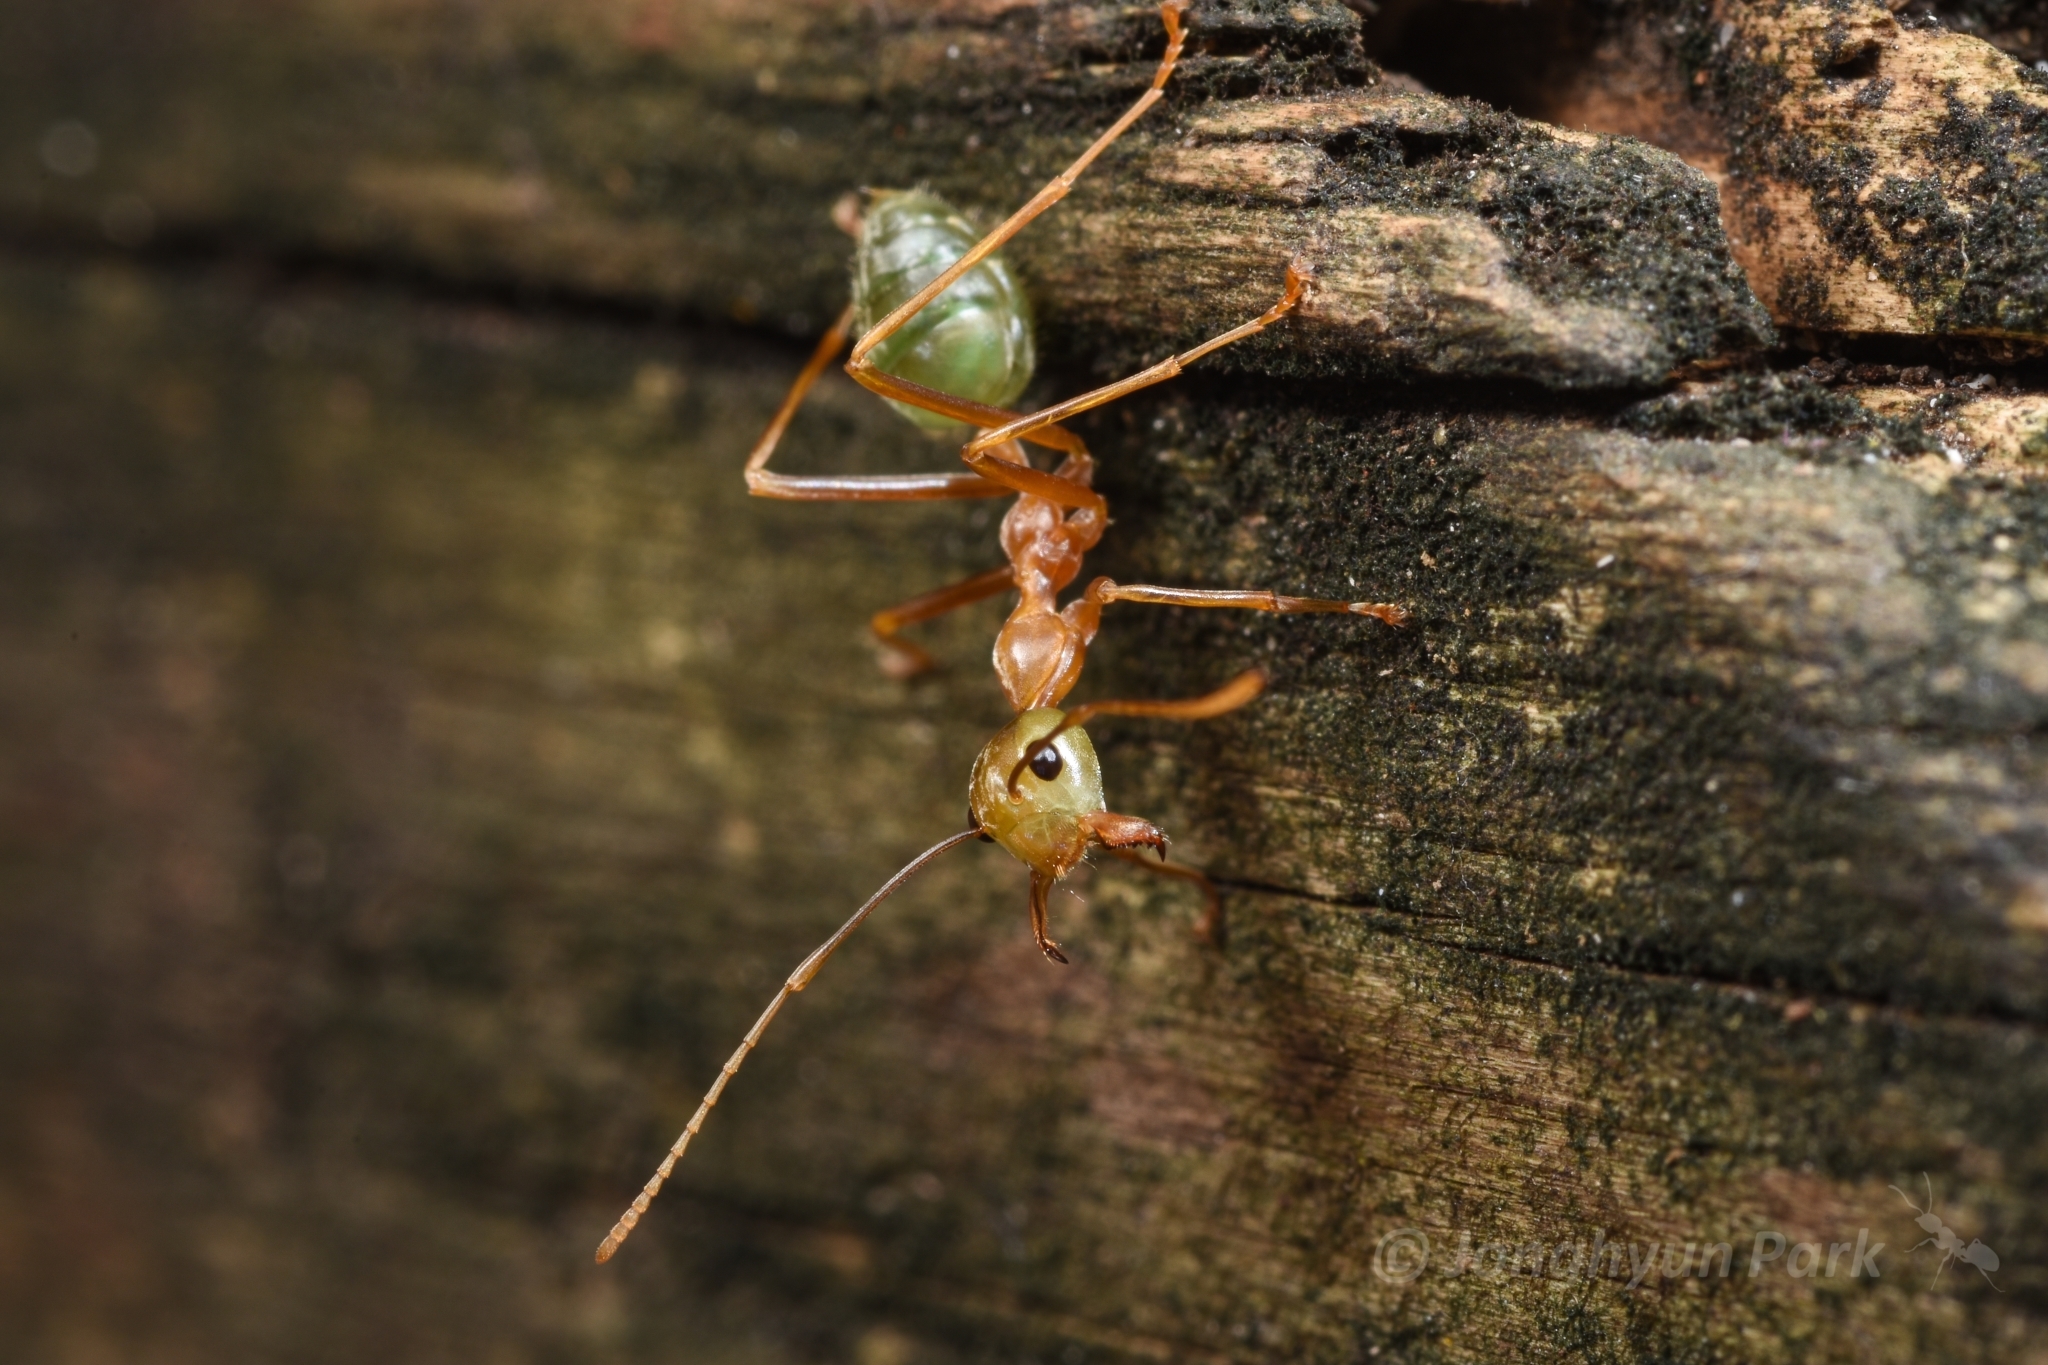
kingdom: Animalia
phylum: Arthropoda
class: Insecta
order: Hymenoptera
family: Formicidae
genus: Oecophylla
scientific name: Oecophylla smaragdina
